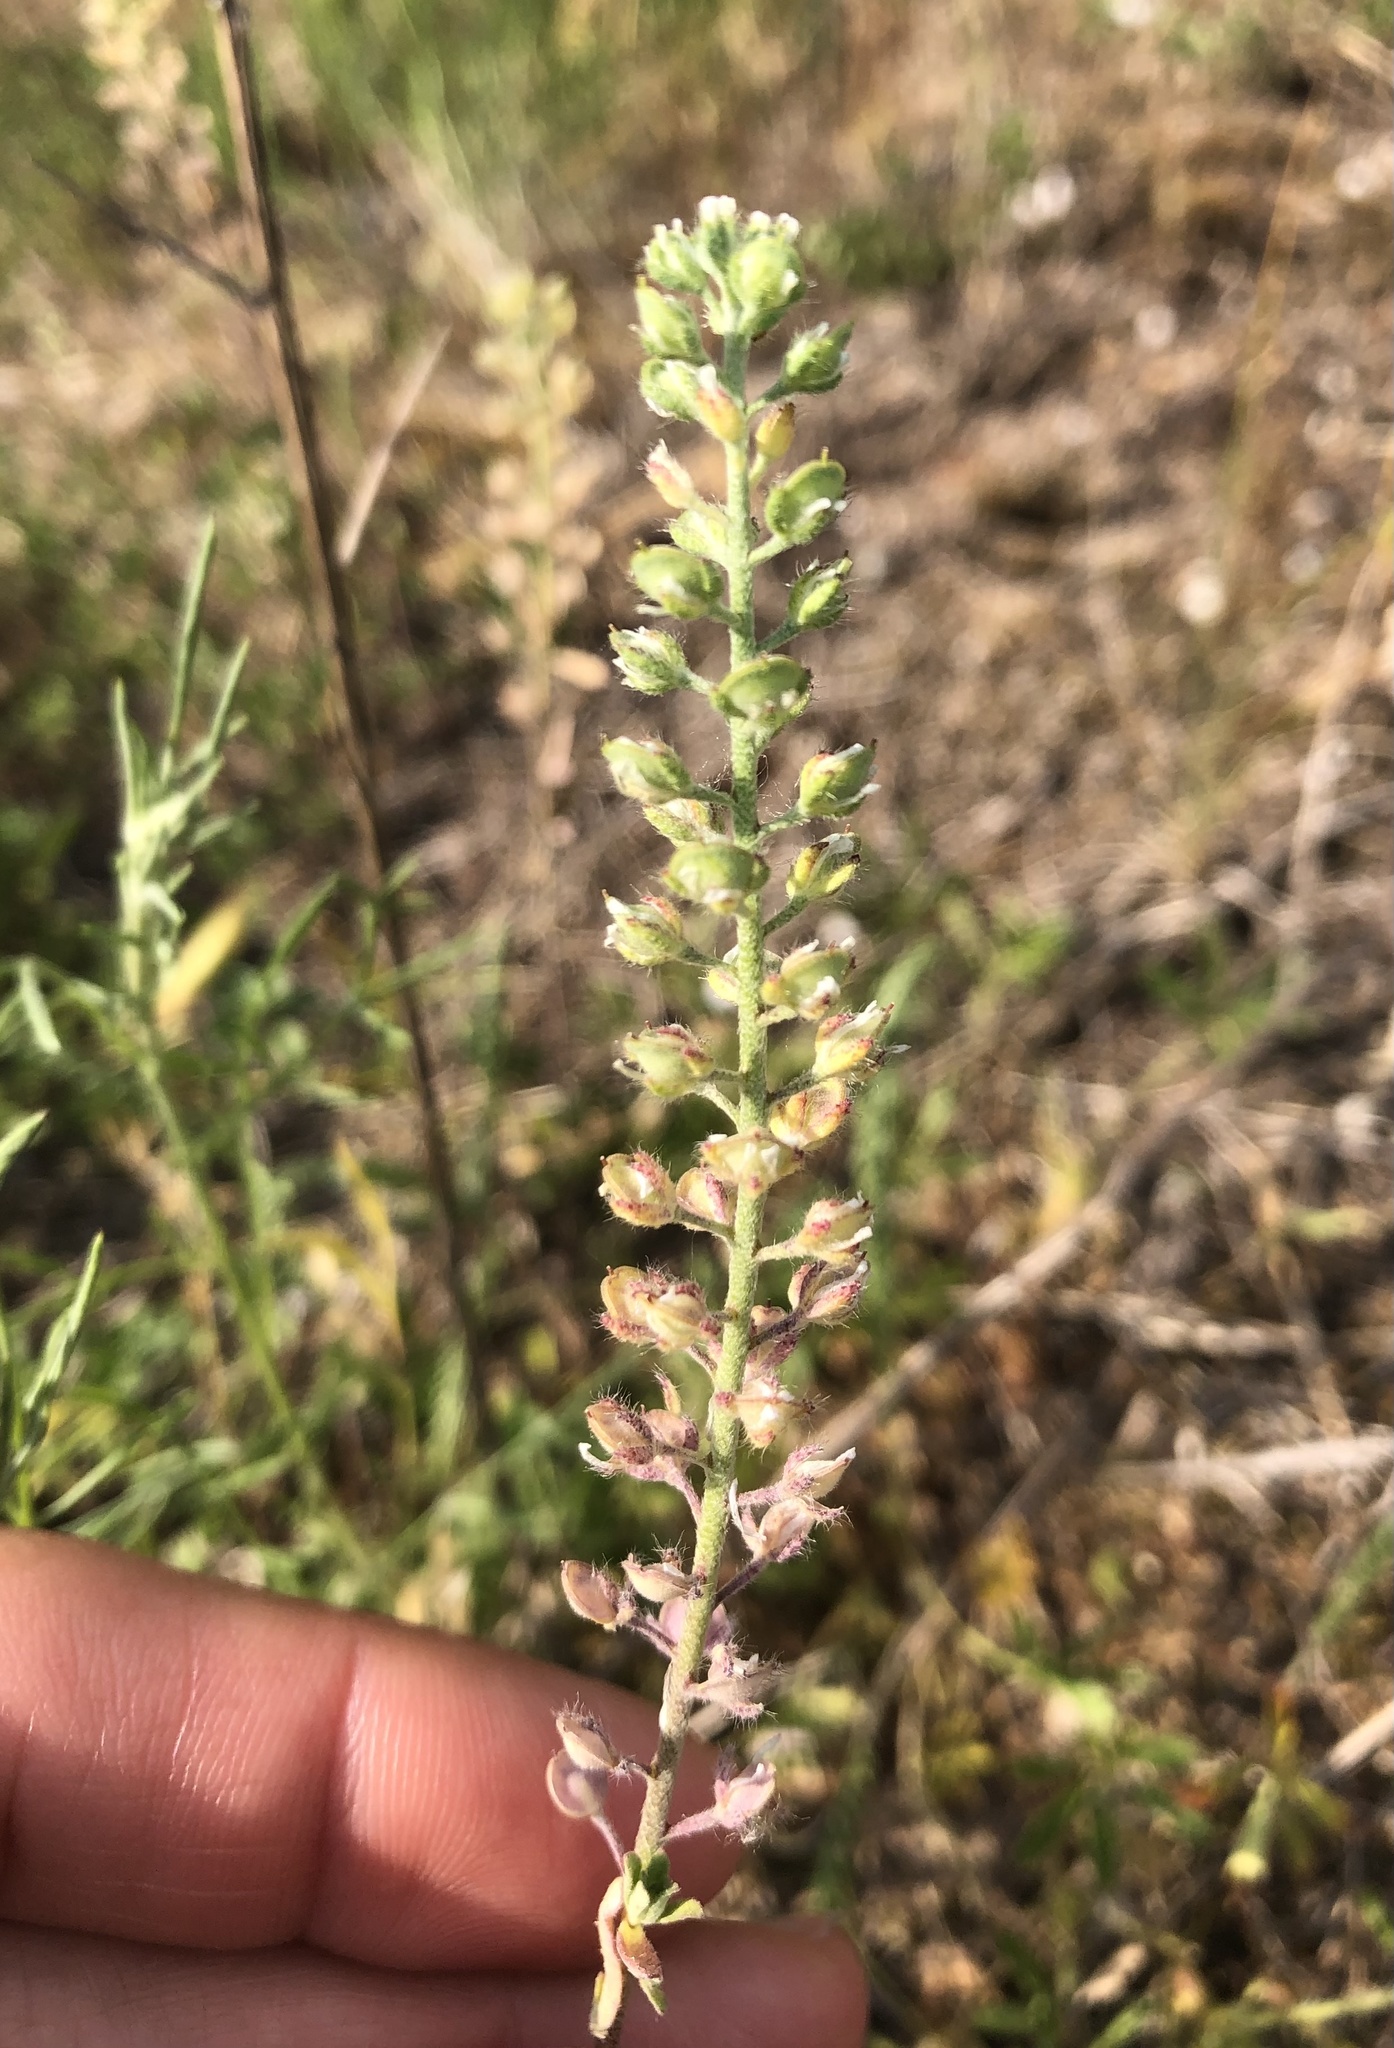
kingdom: Plantae
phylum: Tracheophyta
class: Magnoliopsida
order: Brassicales
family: Brassicaceae
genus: Alyssum
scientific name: Alyssum alyssoides
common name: Small alison
